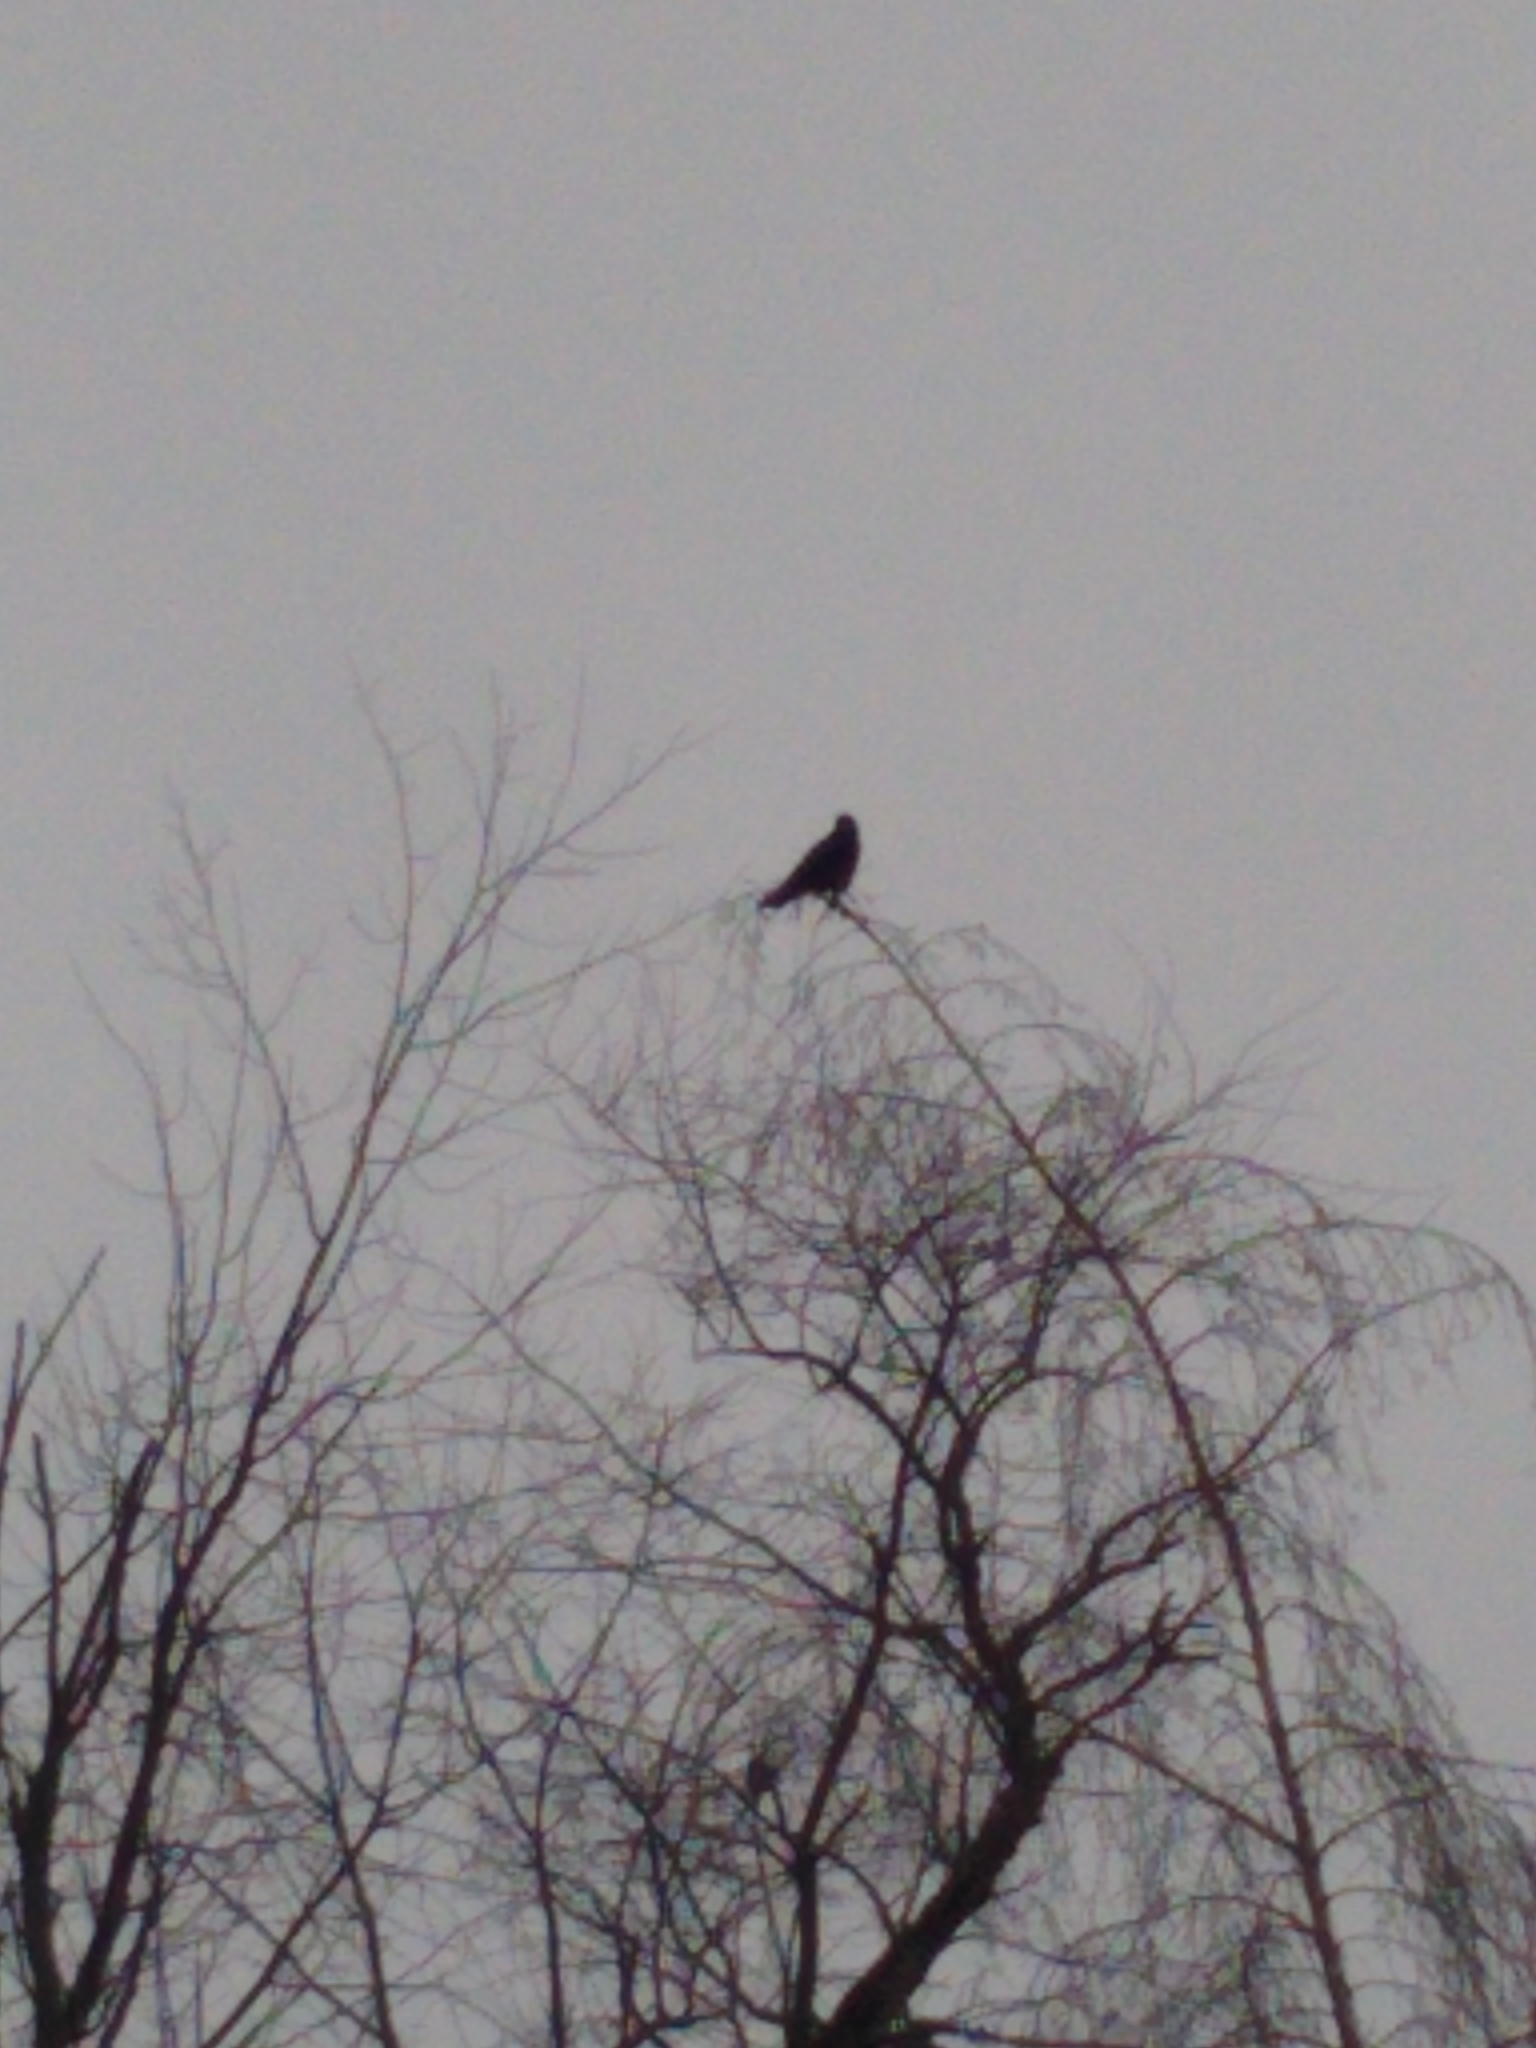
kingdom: Animalia
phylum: Chordata
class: Aves
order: Passeriformes
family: Corvidae
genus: Corvus
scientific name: Corvus brachyrhynchos
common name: American crow
